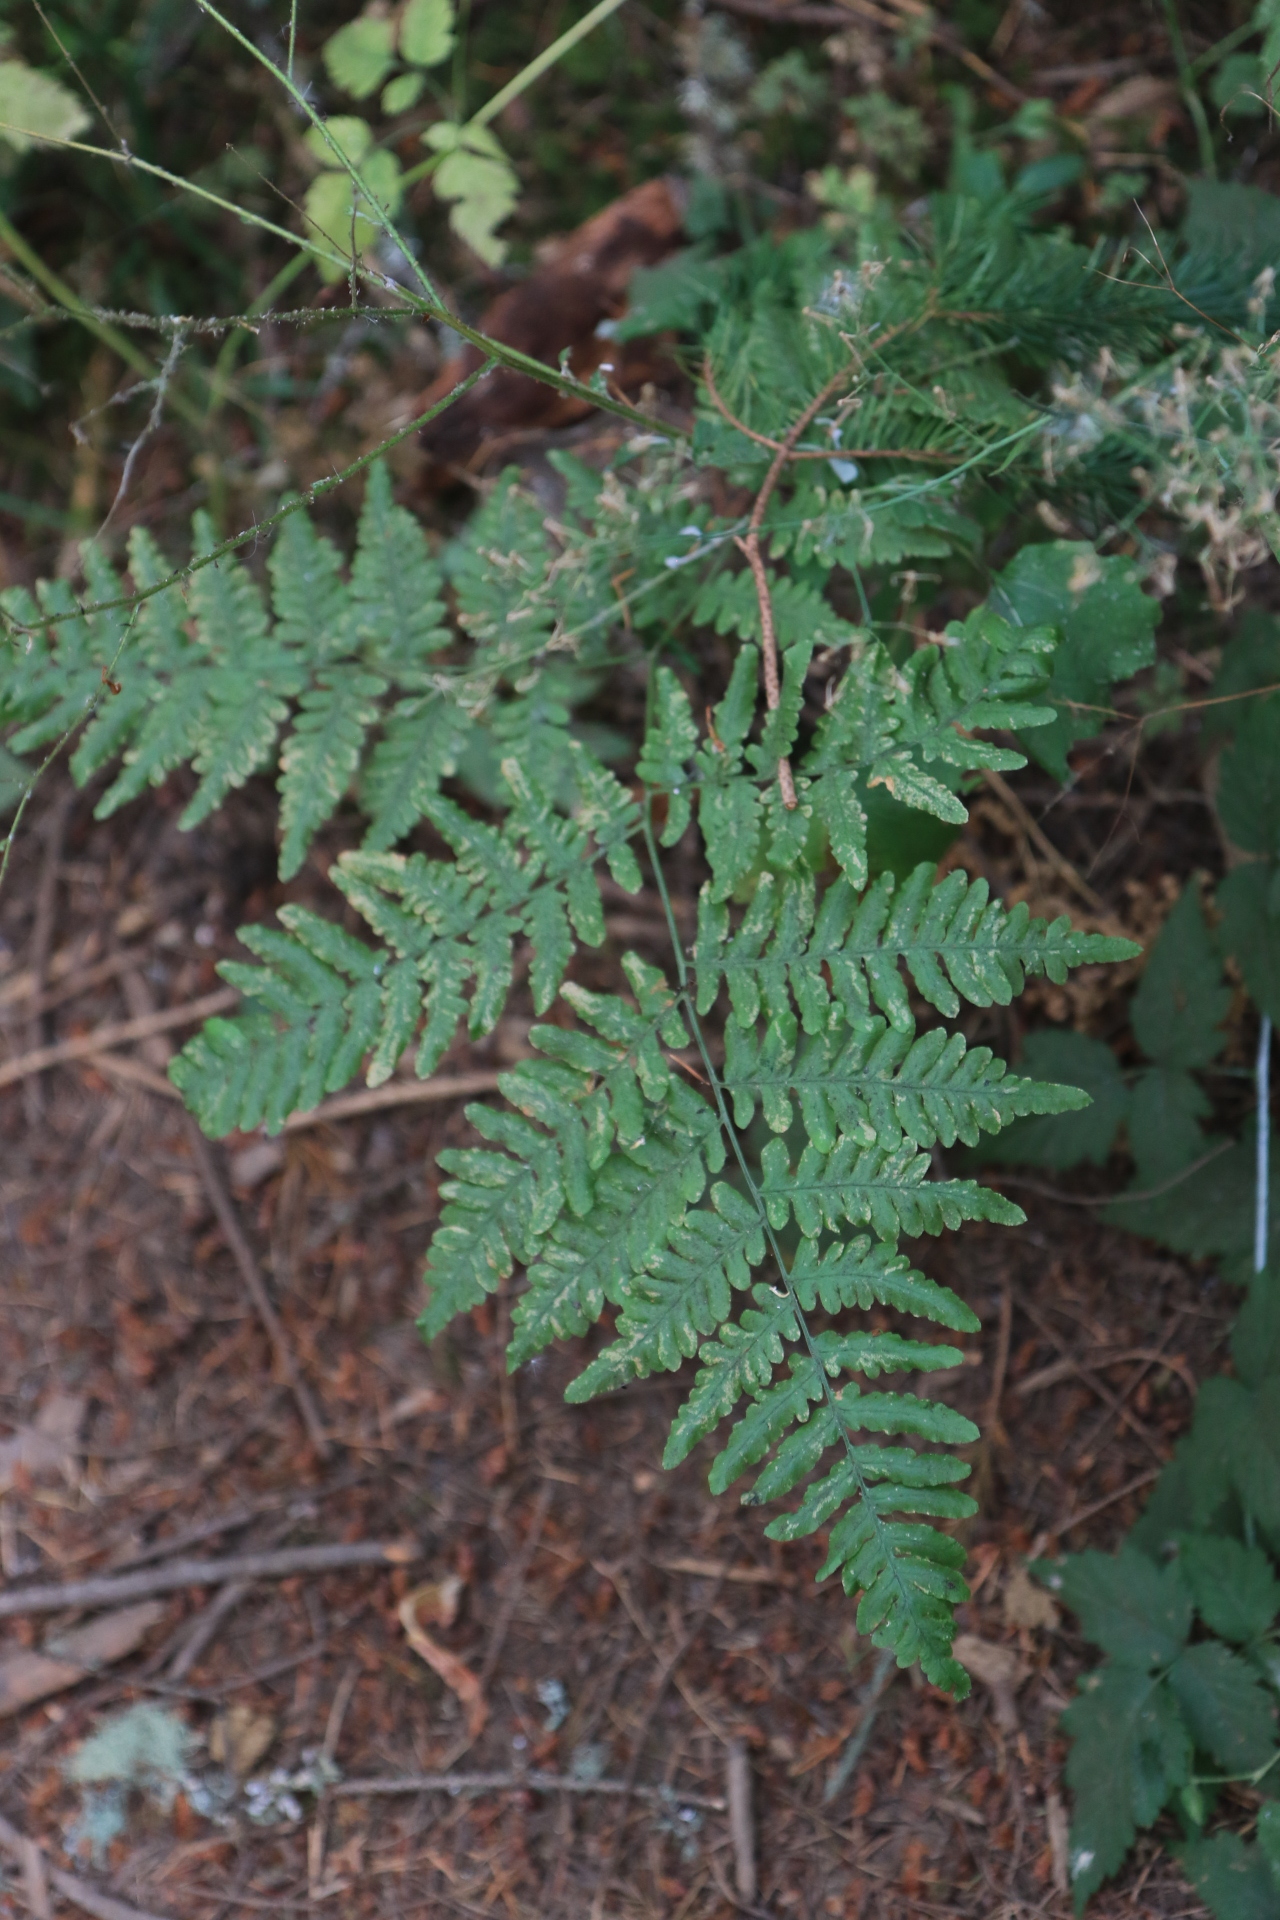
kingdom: Plantae
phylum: Tracheophyta
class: Polypodiopsida
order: Polypodiales
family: Dennstaedtiaceae
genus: Pteridium
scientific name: Pteridium aquilinum
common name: Bracken
